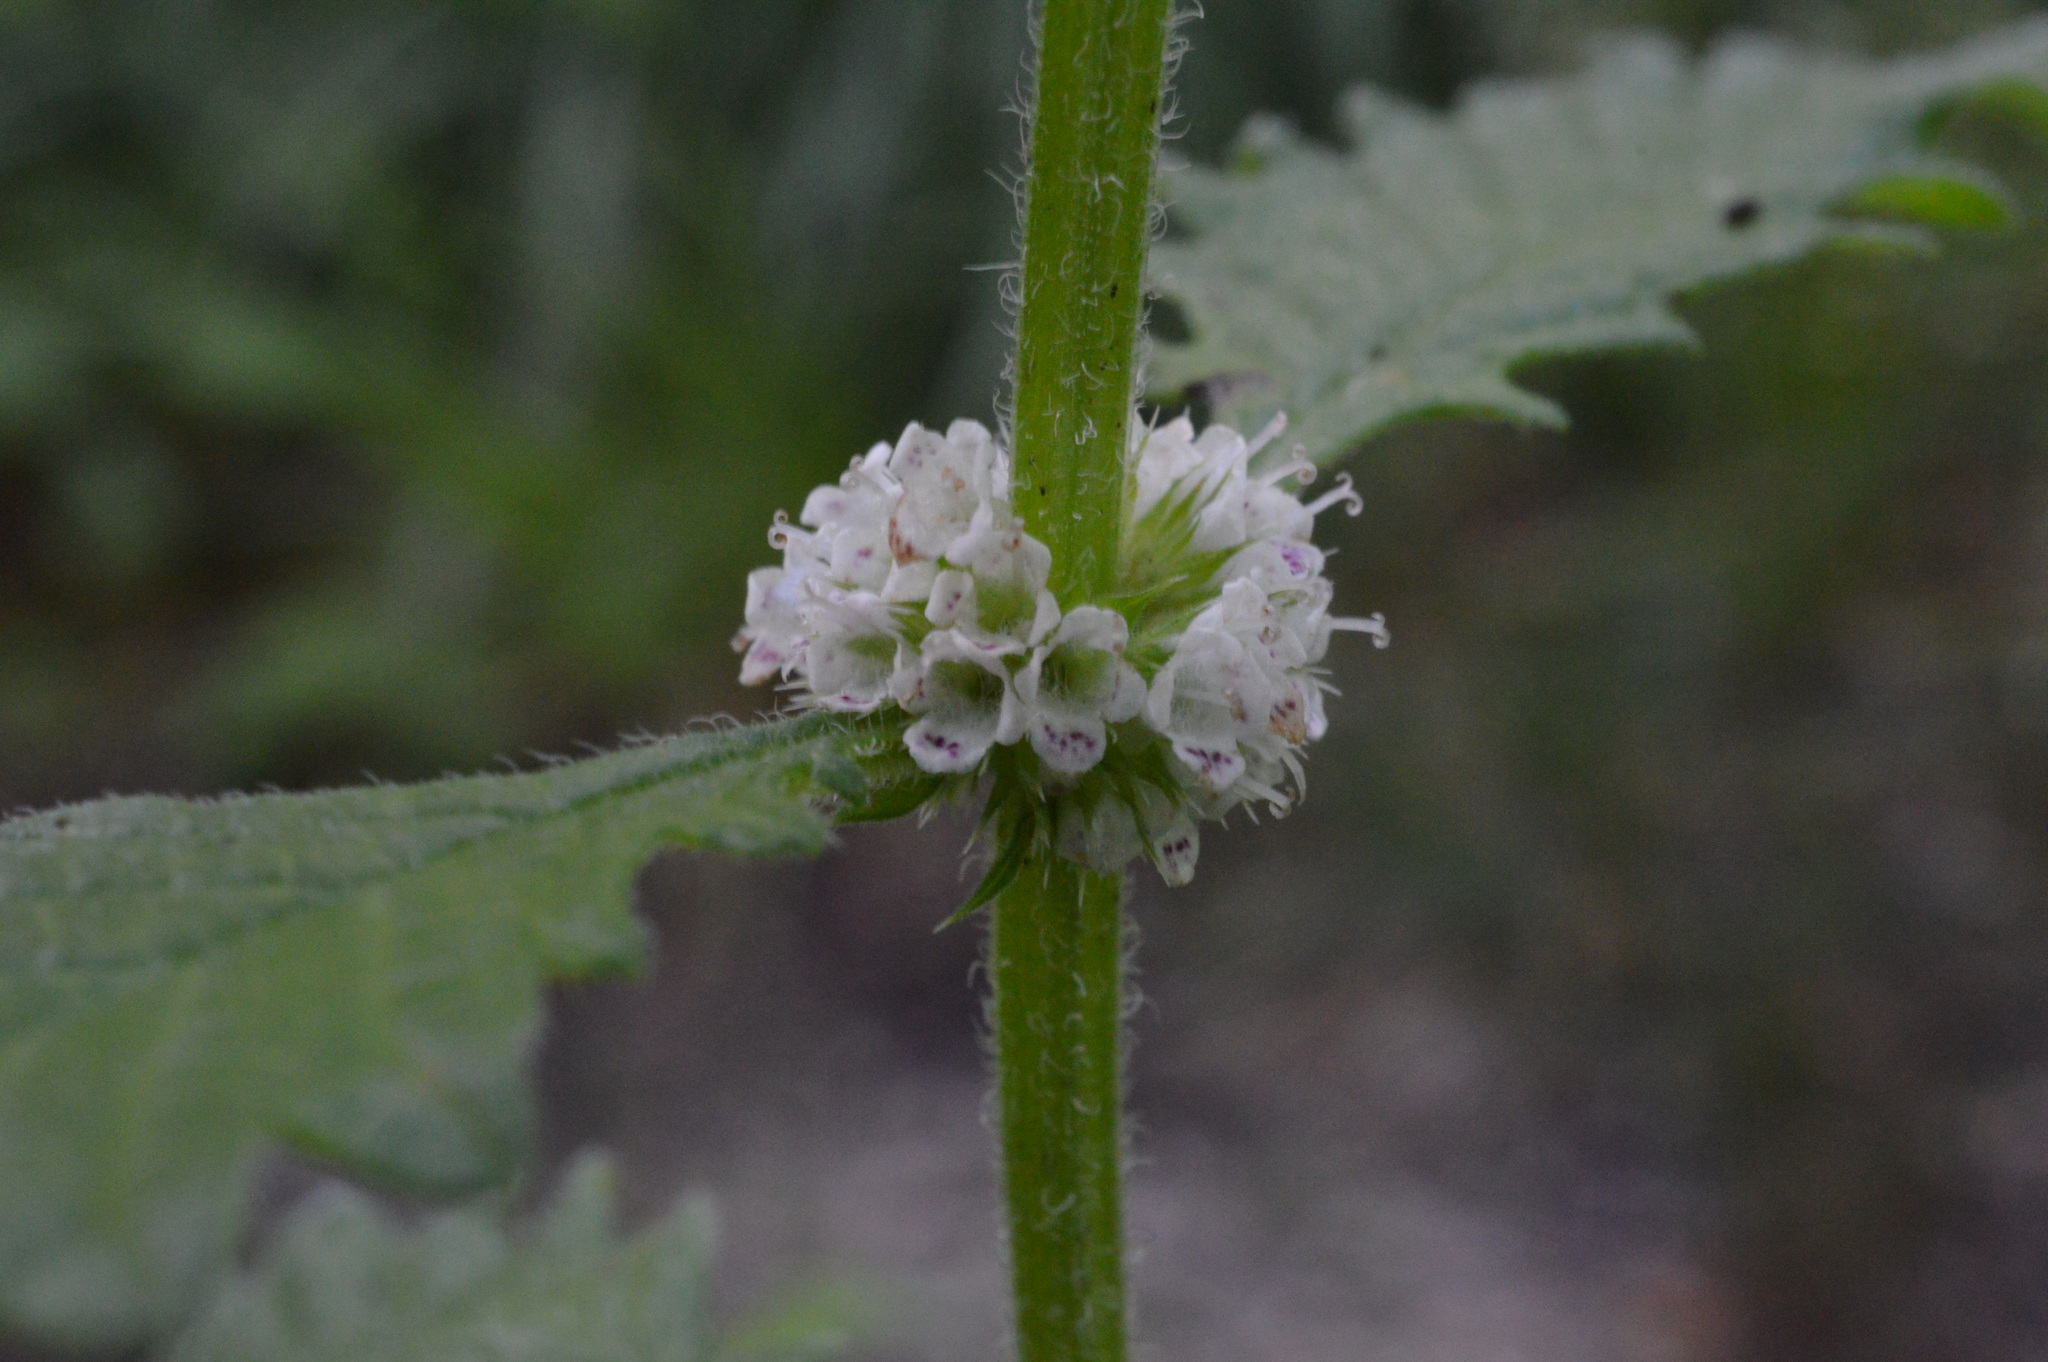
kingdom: Plantae
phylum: Tracheophyta
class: Magnoliopsida
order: Lamiales
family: Lamiaceae
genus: Lycopus
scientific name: Lycopus europaeus
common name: European bugleweed
